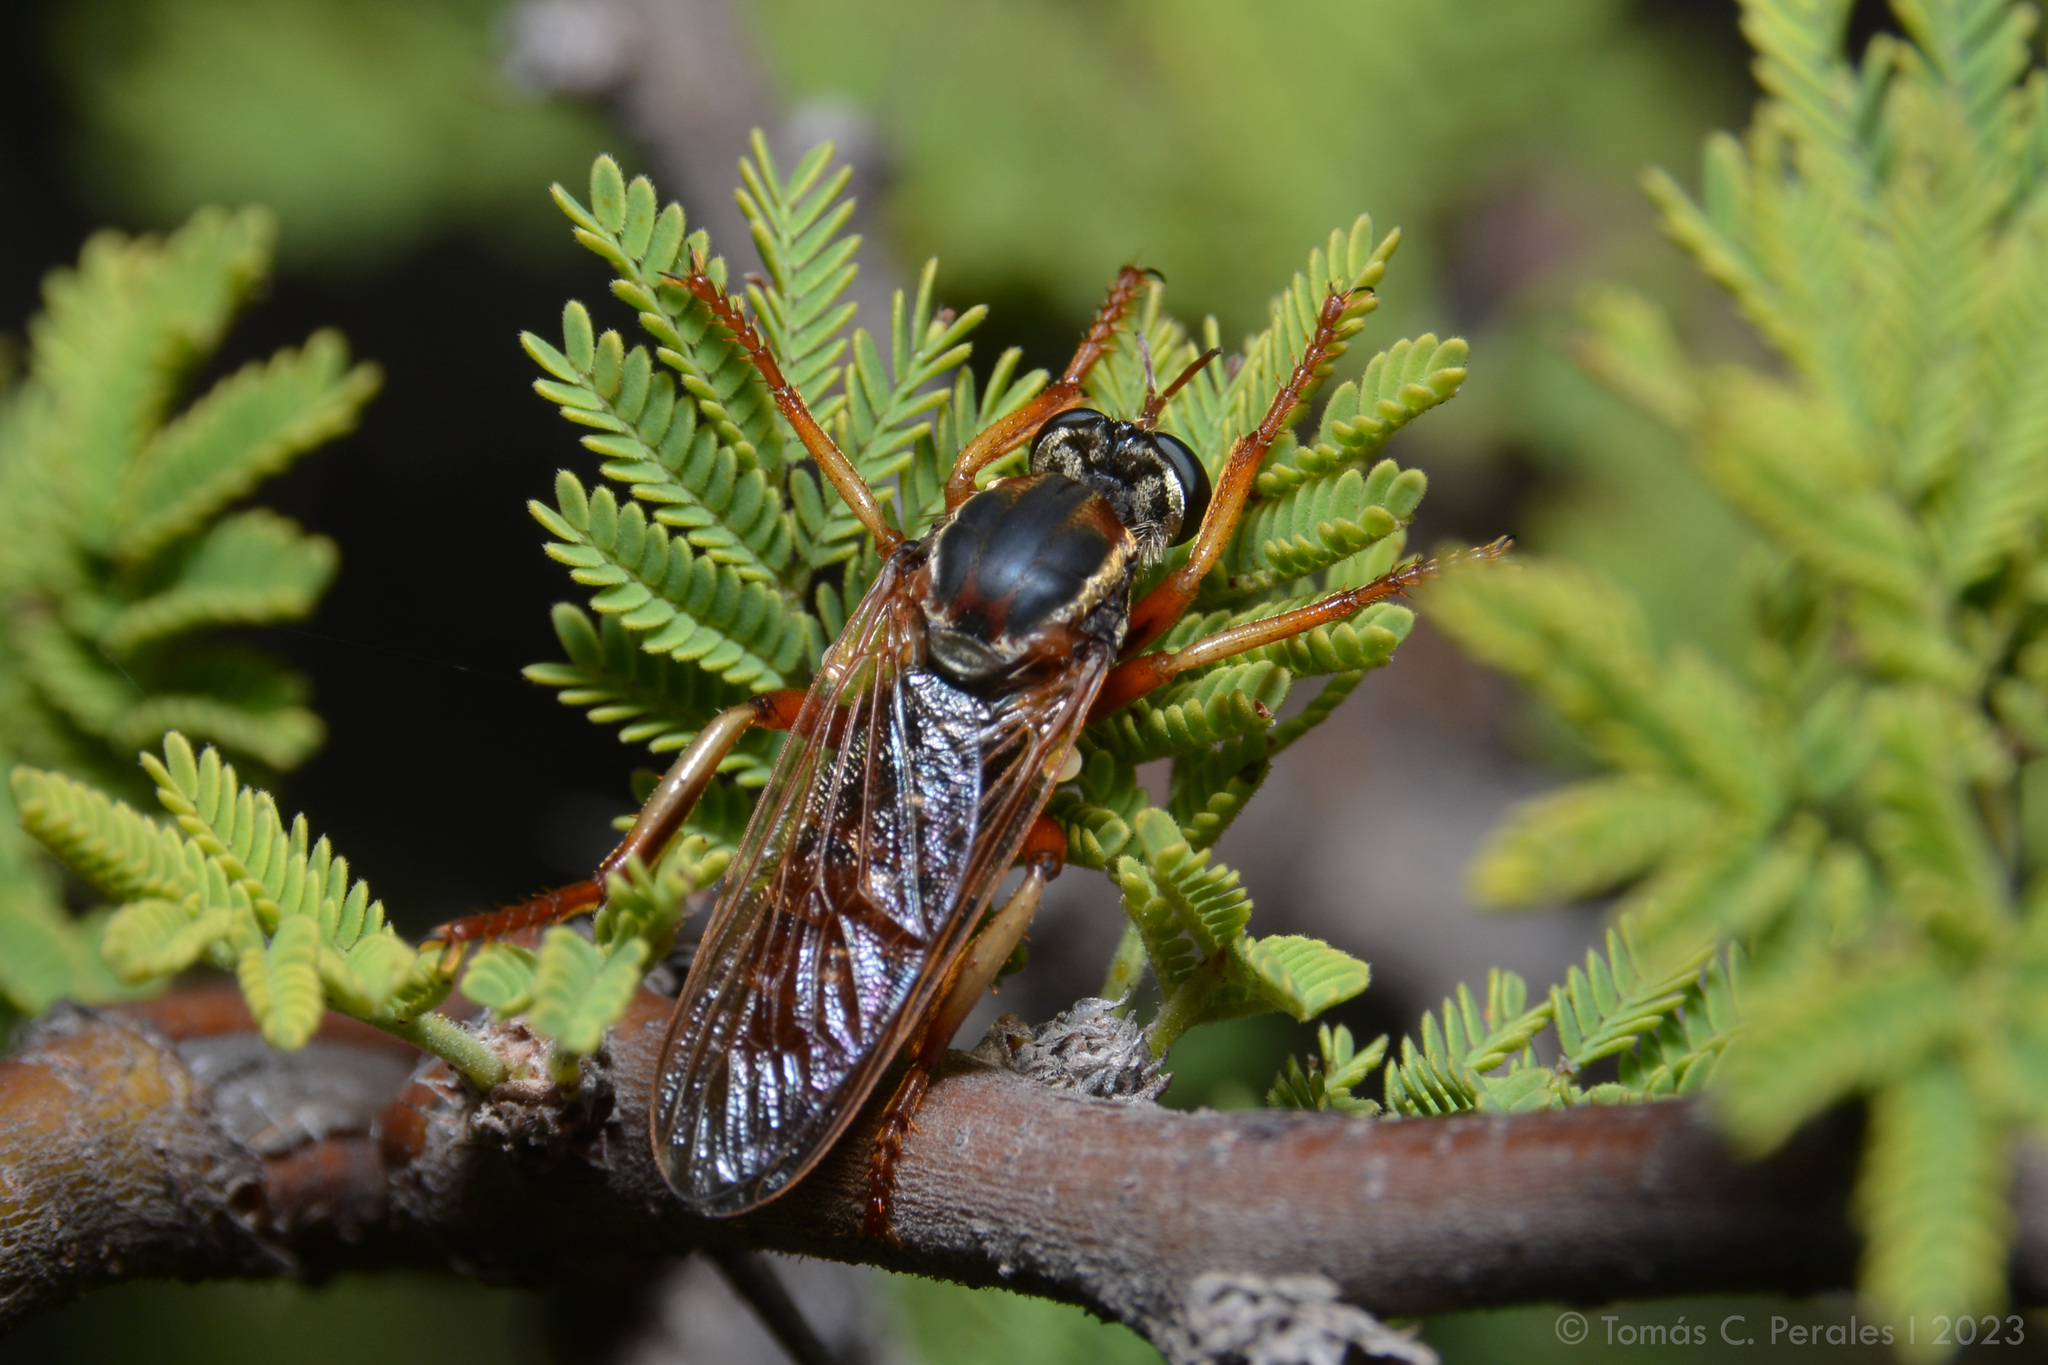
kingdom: Animalia
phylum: Arthropoda
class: Insecta
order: Diptera
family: Asilidae
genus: Blepharepium
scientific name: Blepharepium cajennense
